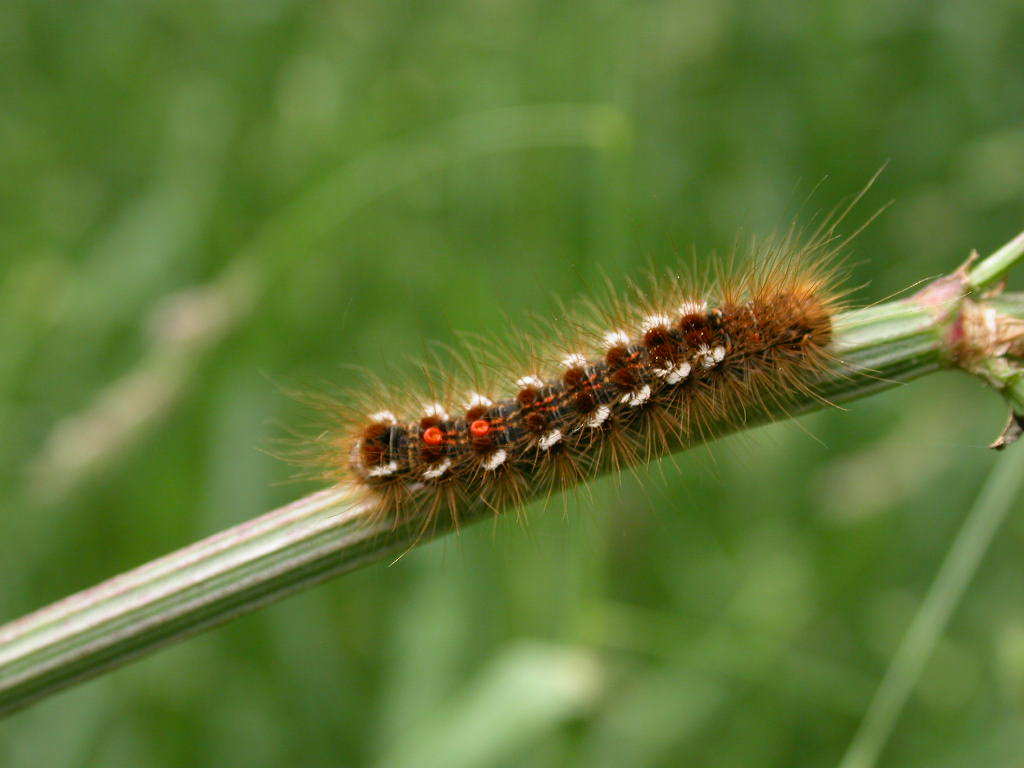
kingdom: Animalia
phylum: Arthropoda
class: Insecta
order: Lepidoptera
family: Erebidae
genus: Euproctis
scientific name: Euproctis chrysorrhoea
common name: Brown-tail
